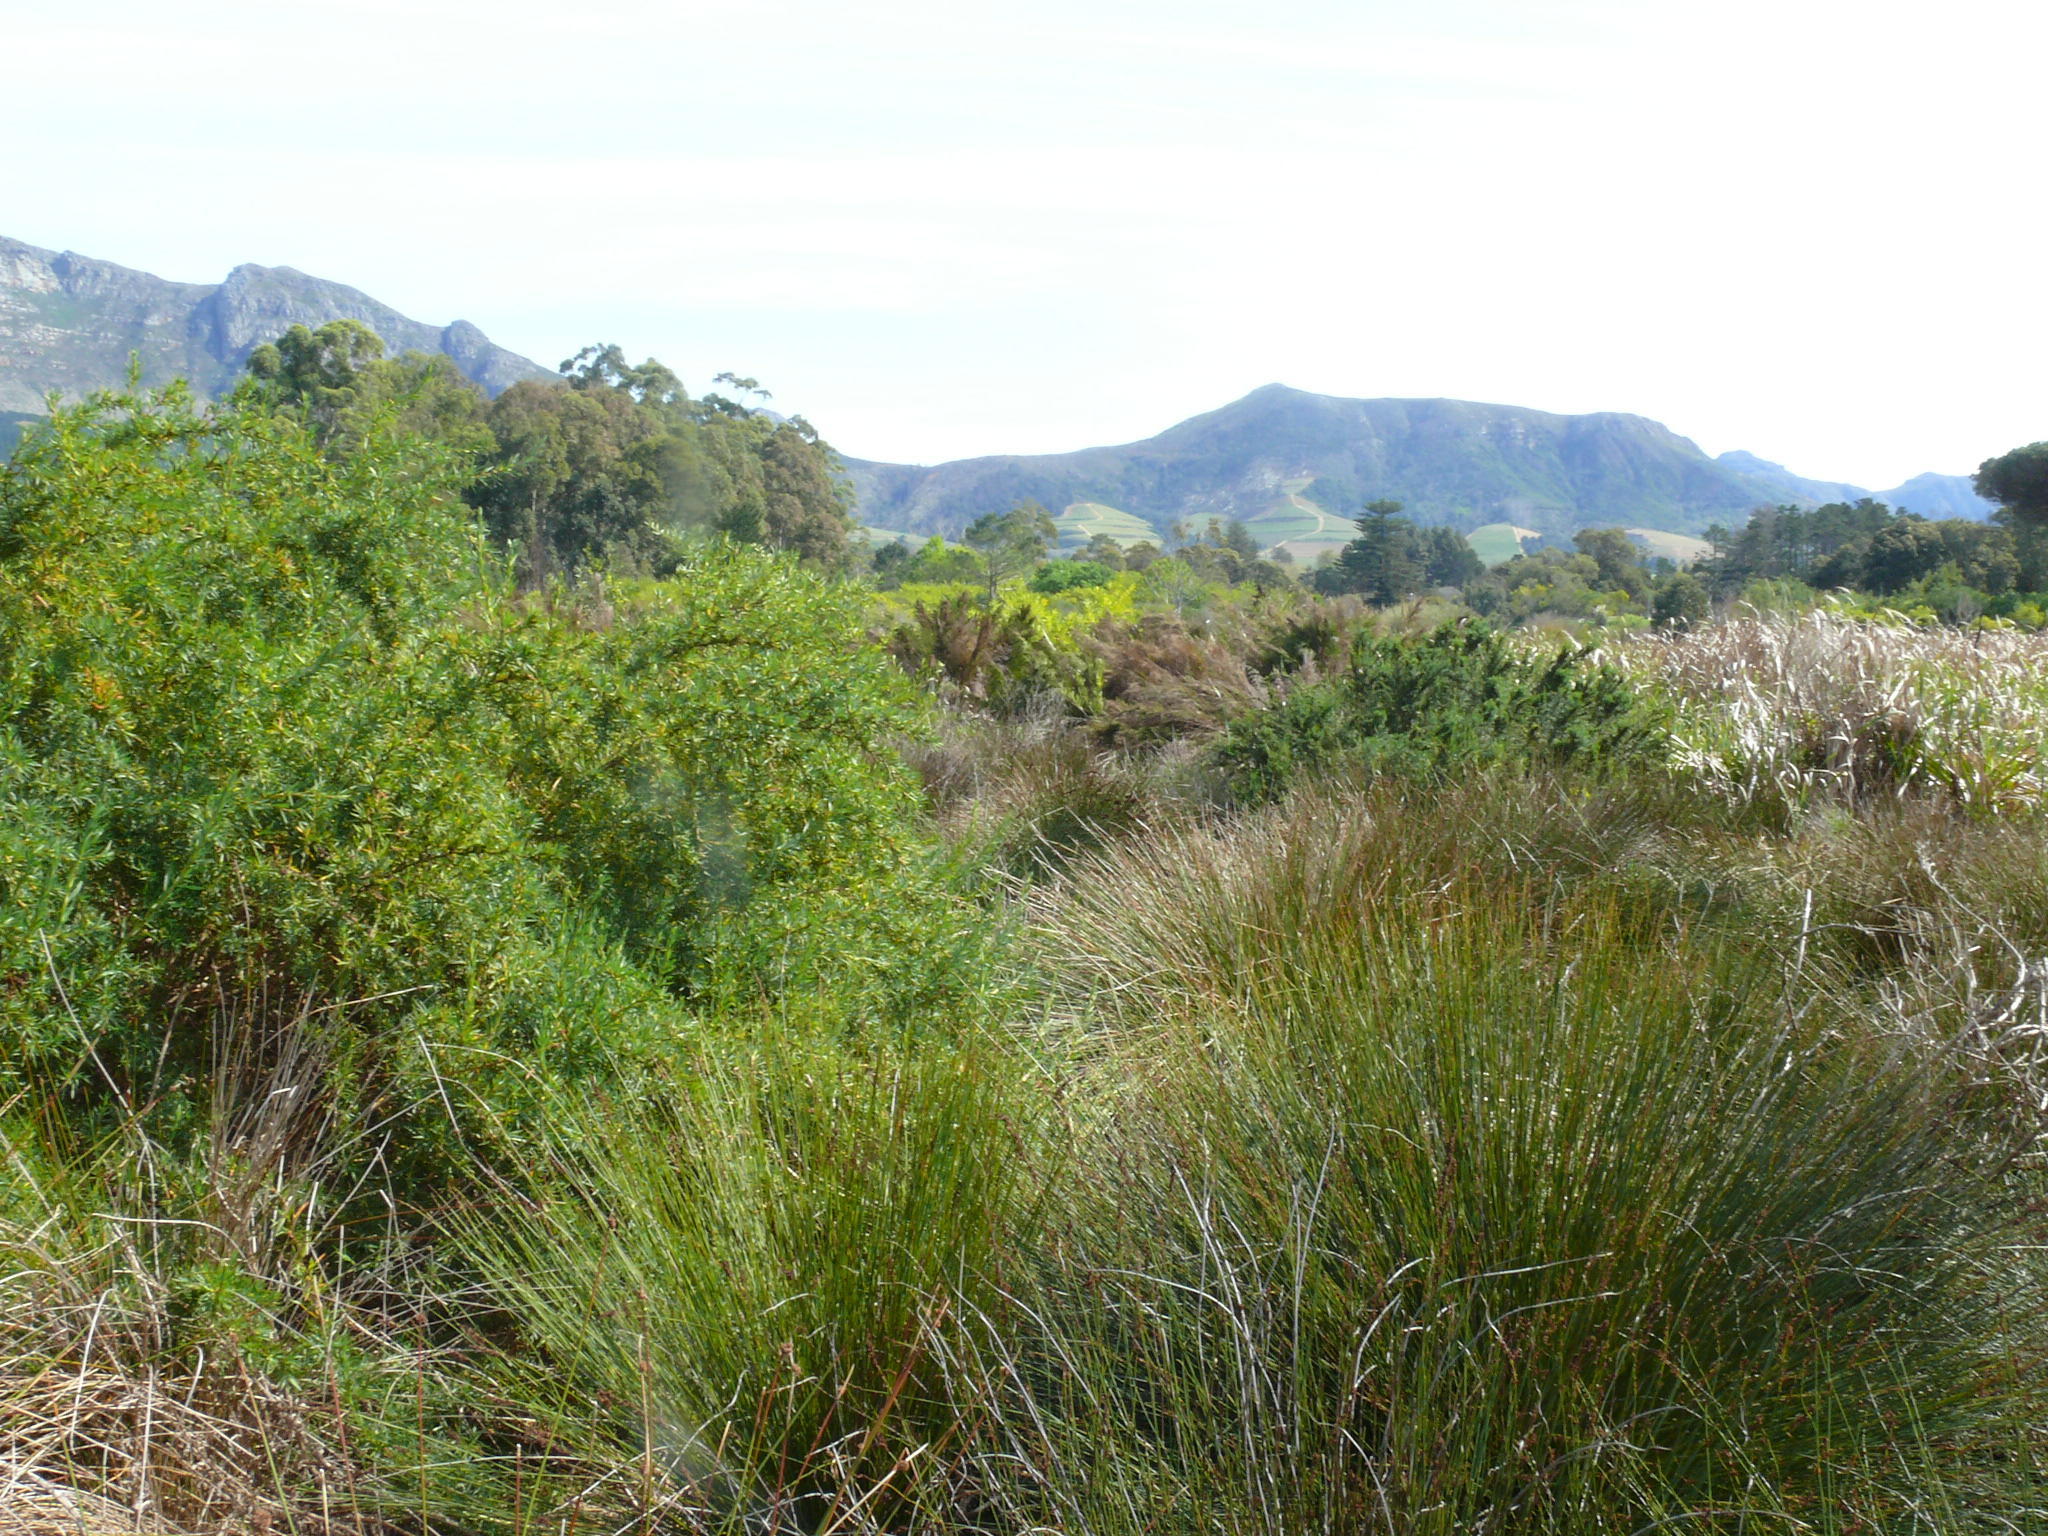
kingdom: Plantae
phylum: Tracheophyta
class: Magnoliopsida
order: Proteales
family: Proteaceae
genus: Leucadendron
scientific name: Leucadendron macowanii
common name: Acacia-leaf conebush
